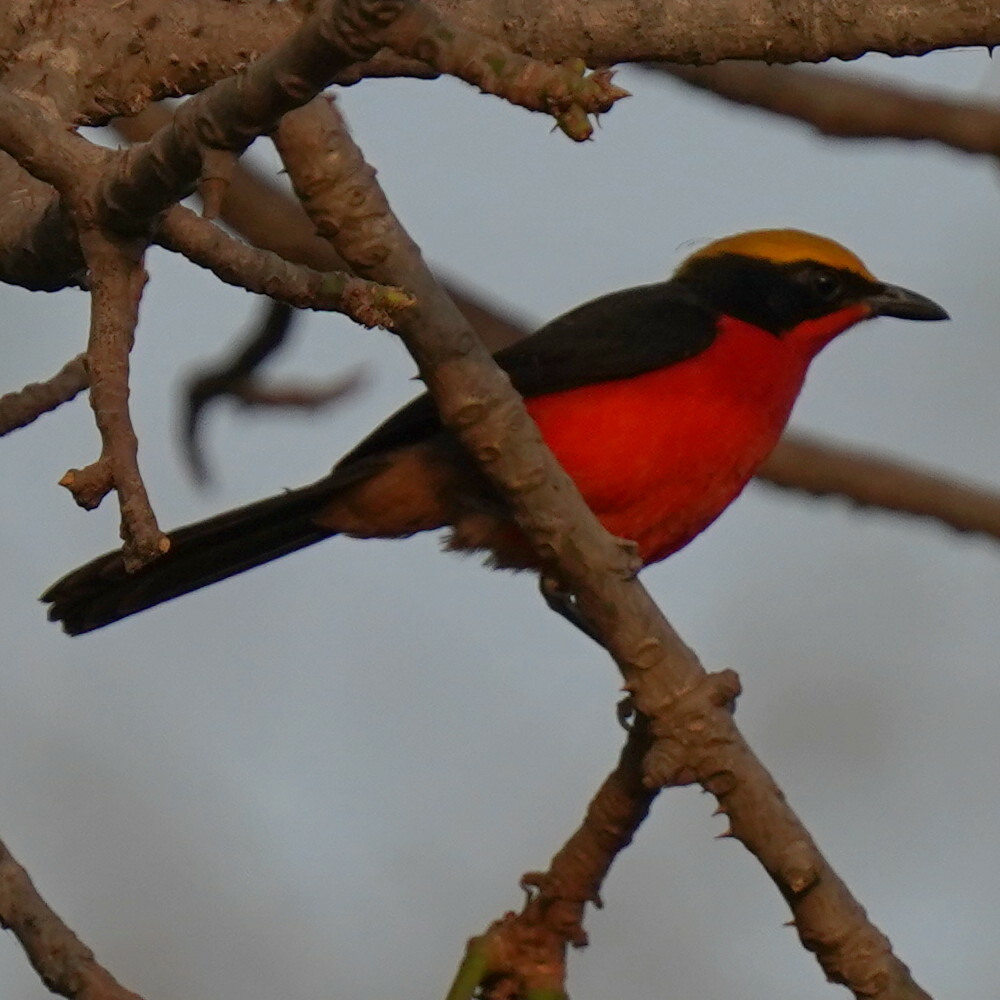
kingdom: Animalia
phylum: Chordata
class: Aves
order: Passeriformes
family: Malaconotidae
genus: Laniarius
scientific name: Laniarius barbarus
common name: Yellow-crowned gonolek
